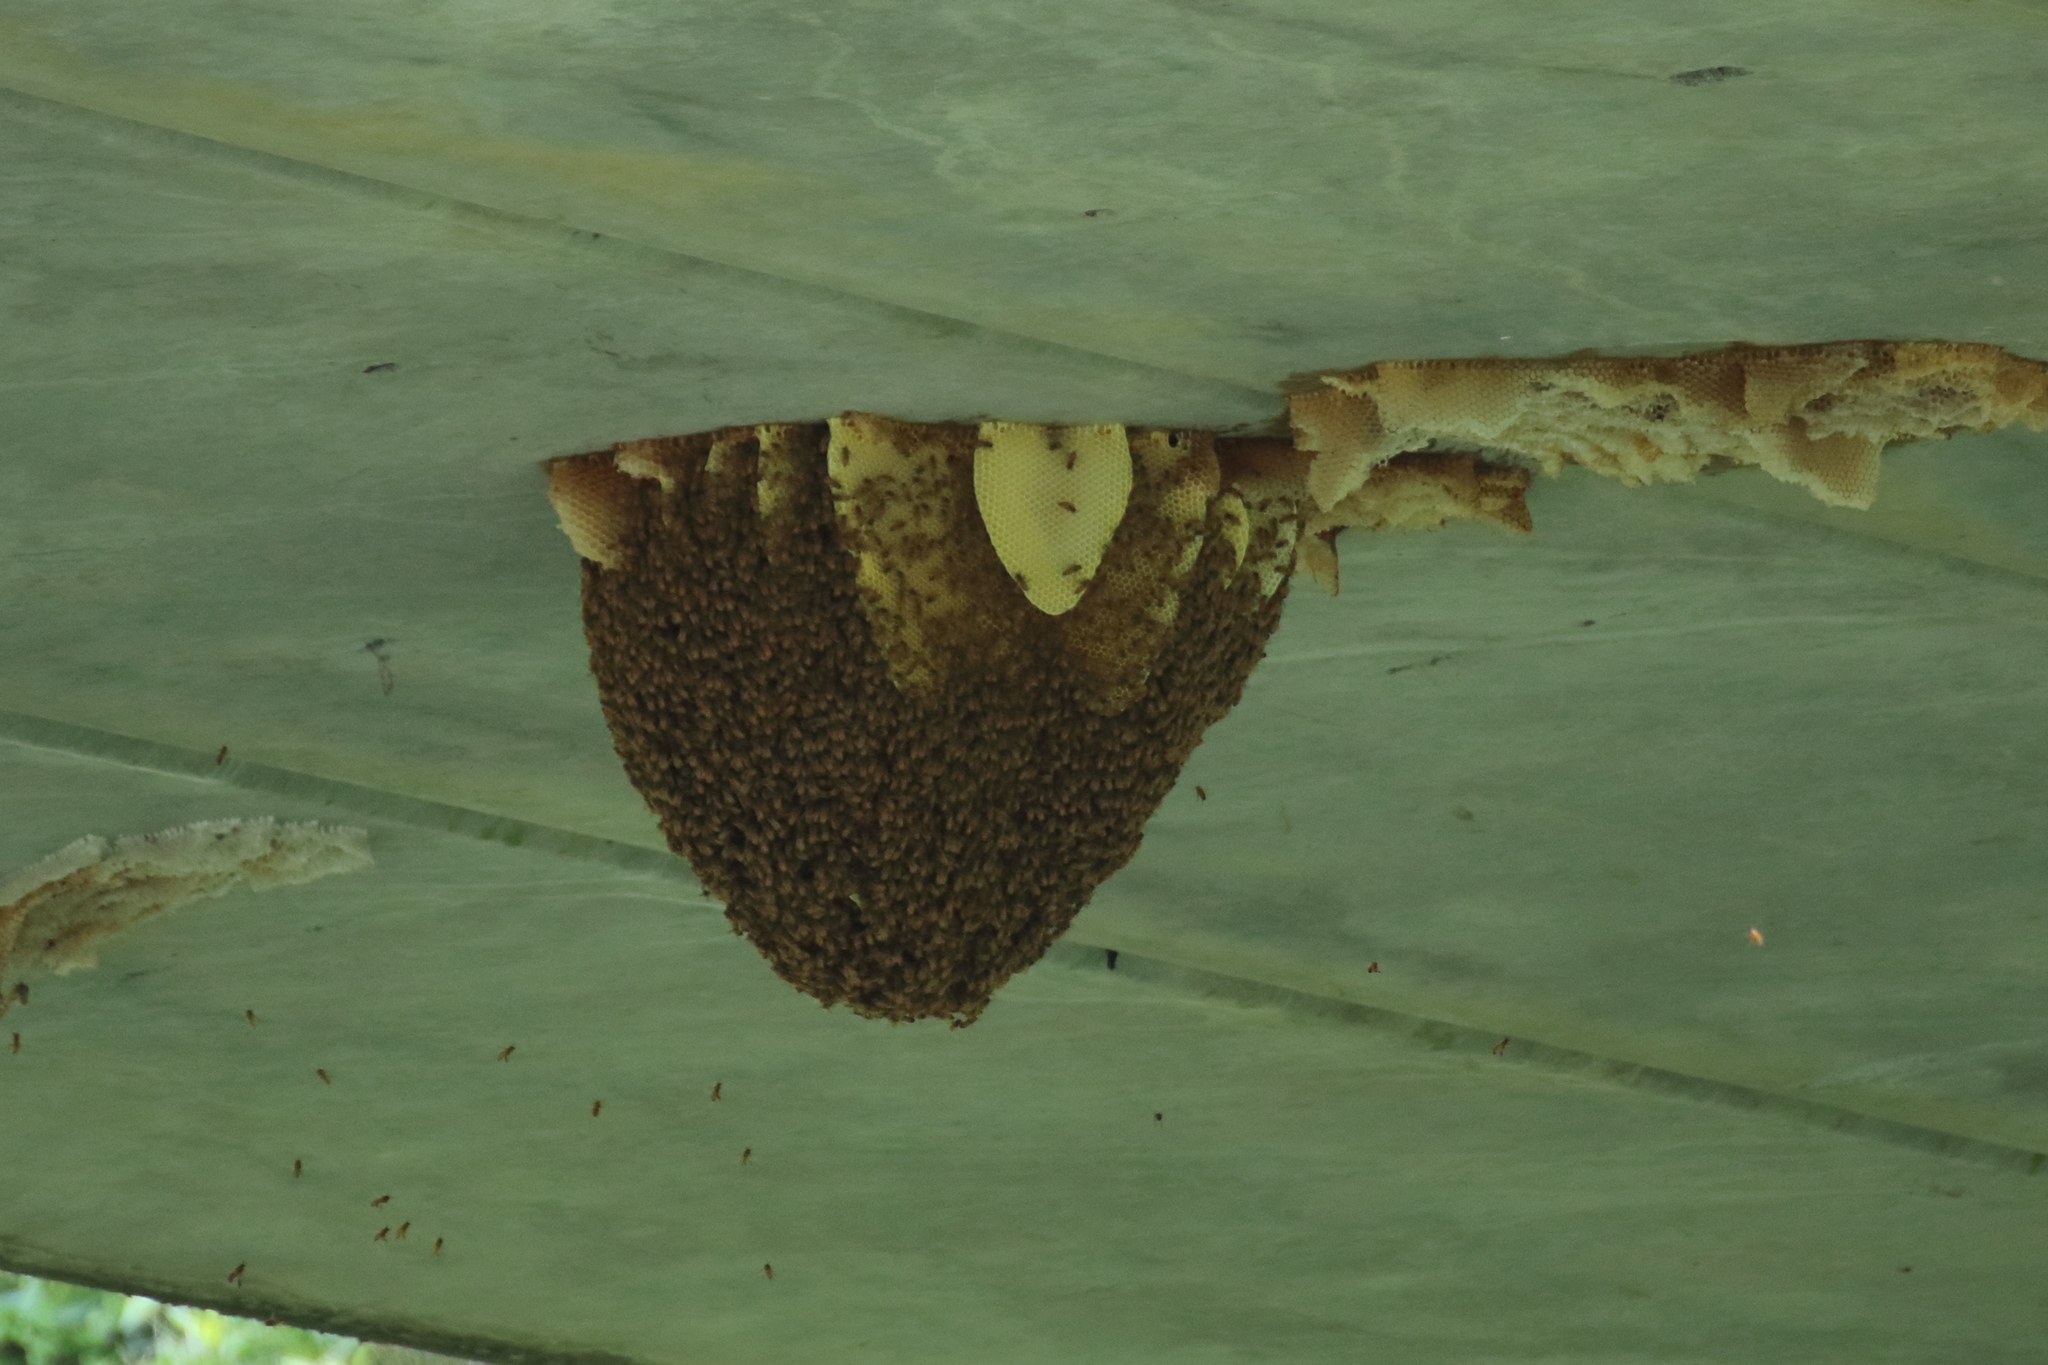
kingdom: Animalia
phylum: Arthropoda
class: Insecta
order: Hymenoptera
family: Apidae
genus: Apis
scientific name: Apis mellifera
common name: Honey bee
